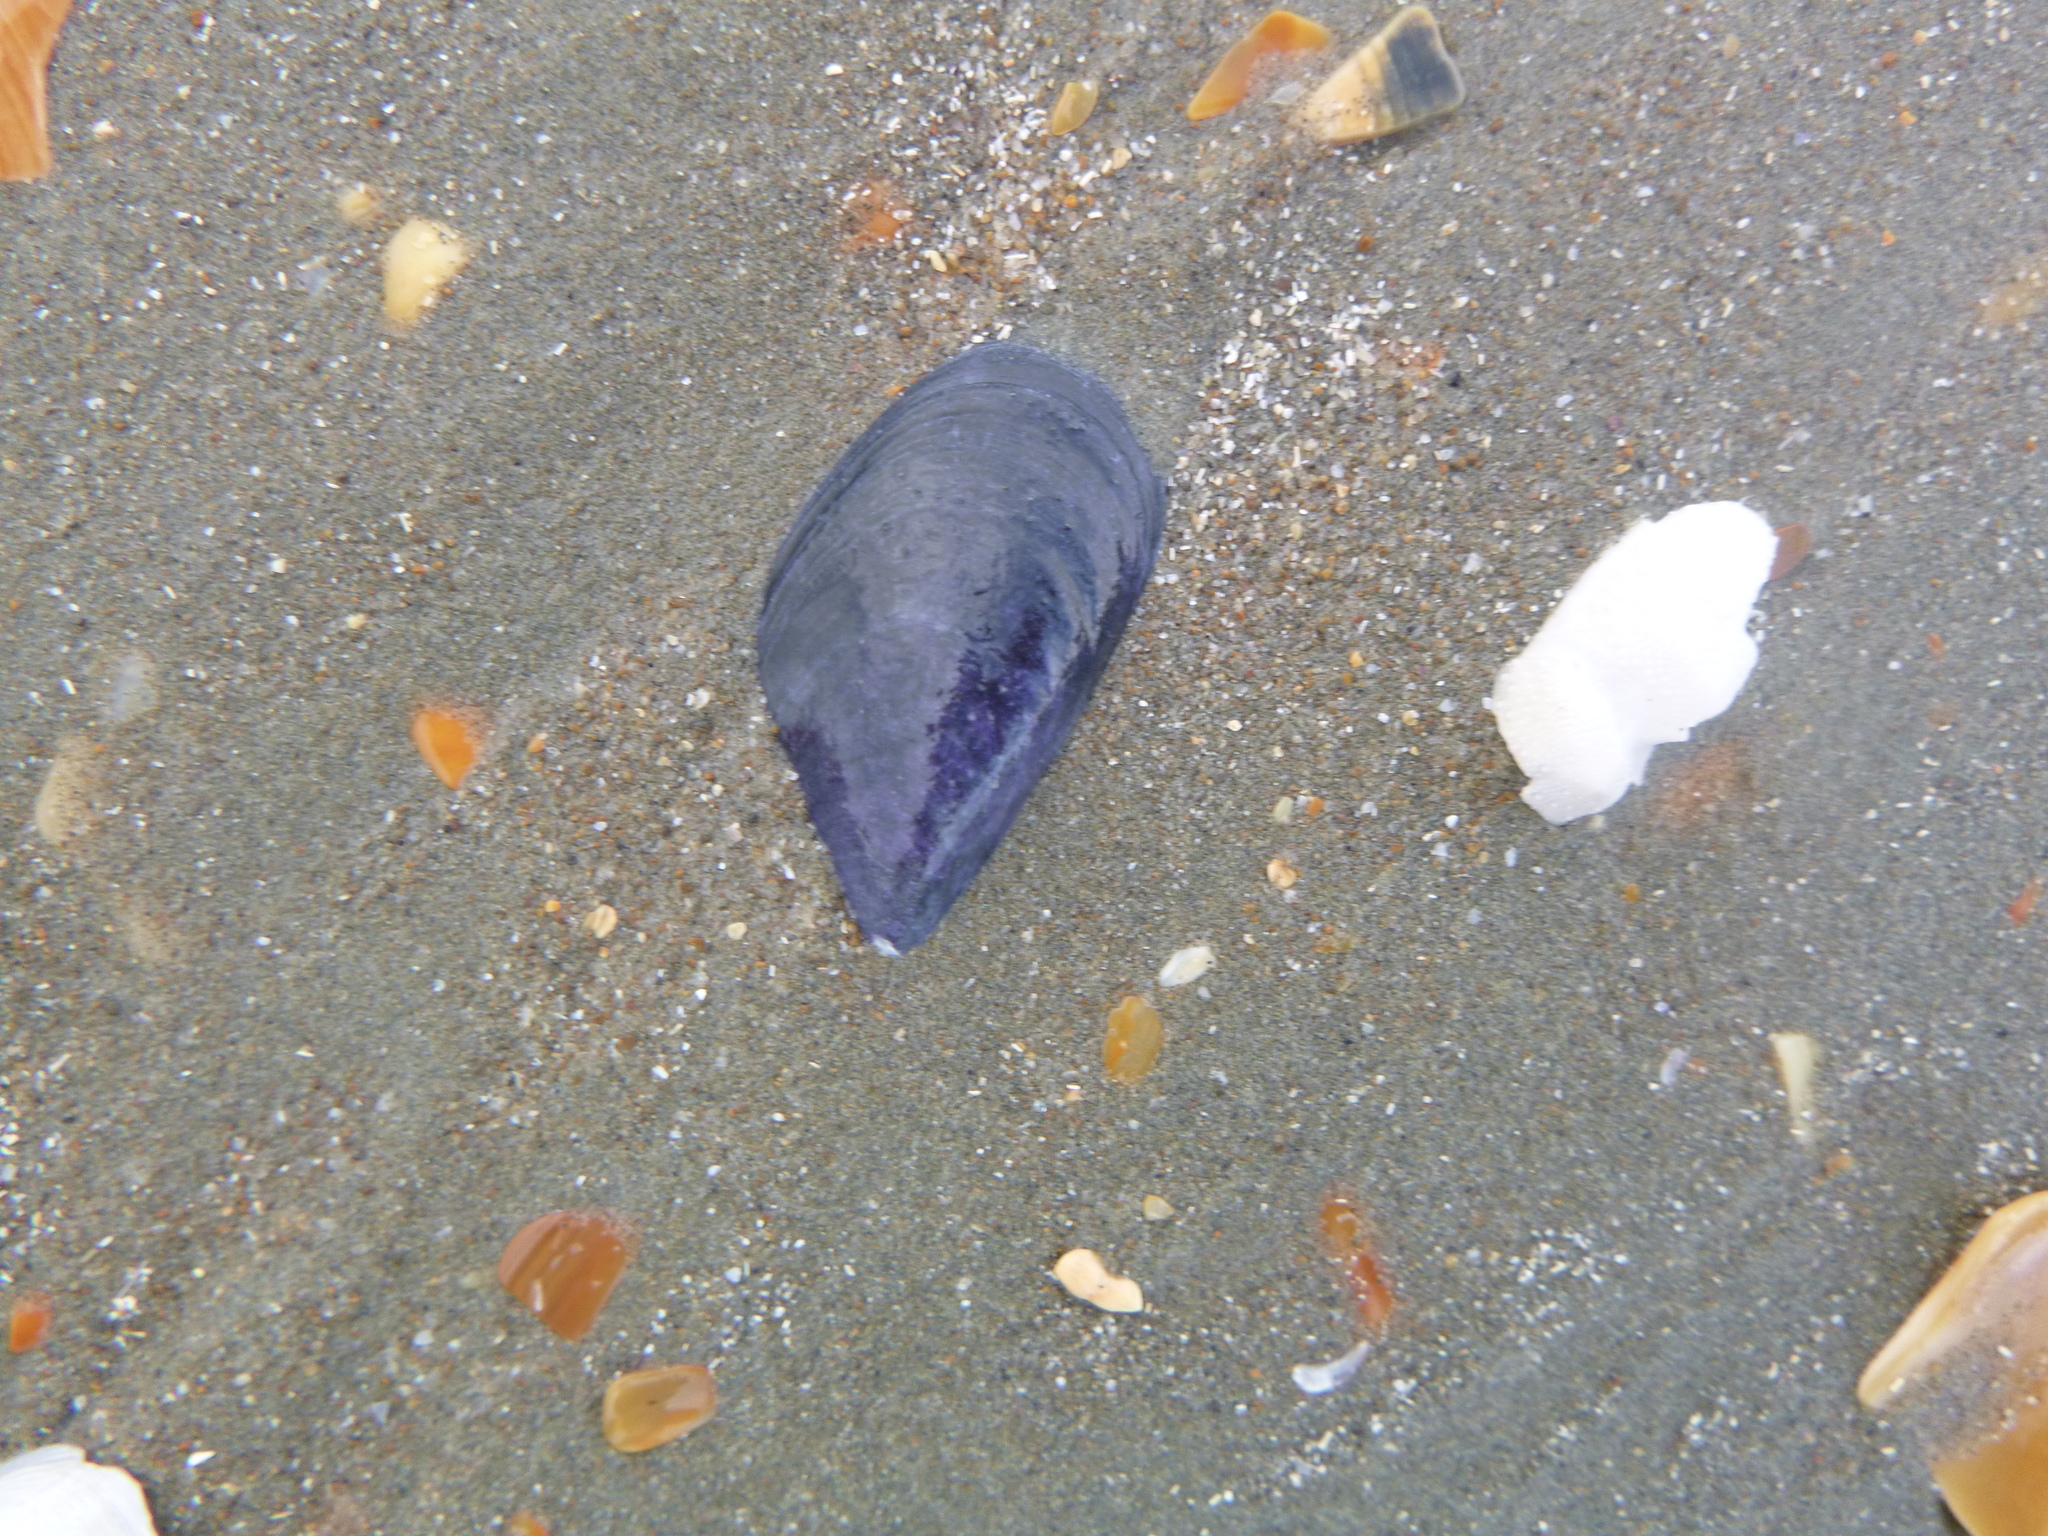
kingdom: Animalia
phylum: Mollusca
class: Bivalvia
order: Mytilida
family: Mytilidae
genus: Mytilus
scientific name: Mytilus planulatus
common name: Australian mussel
